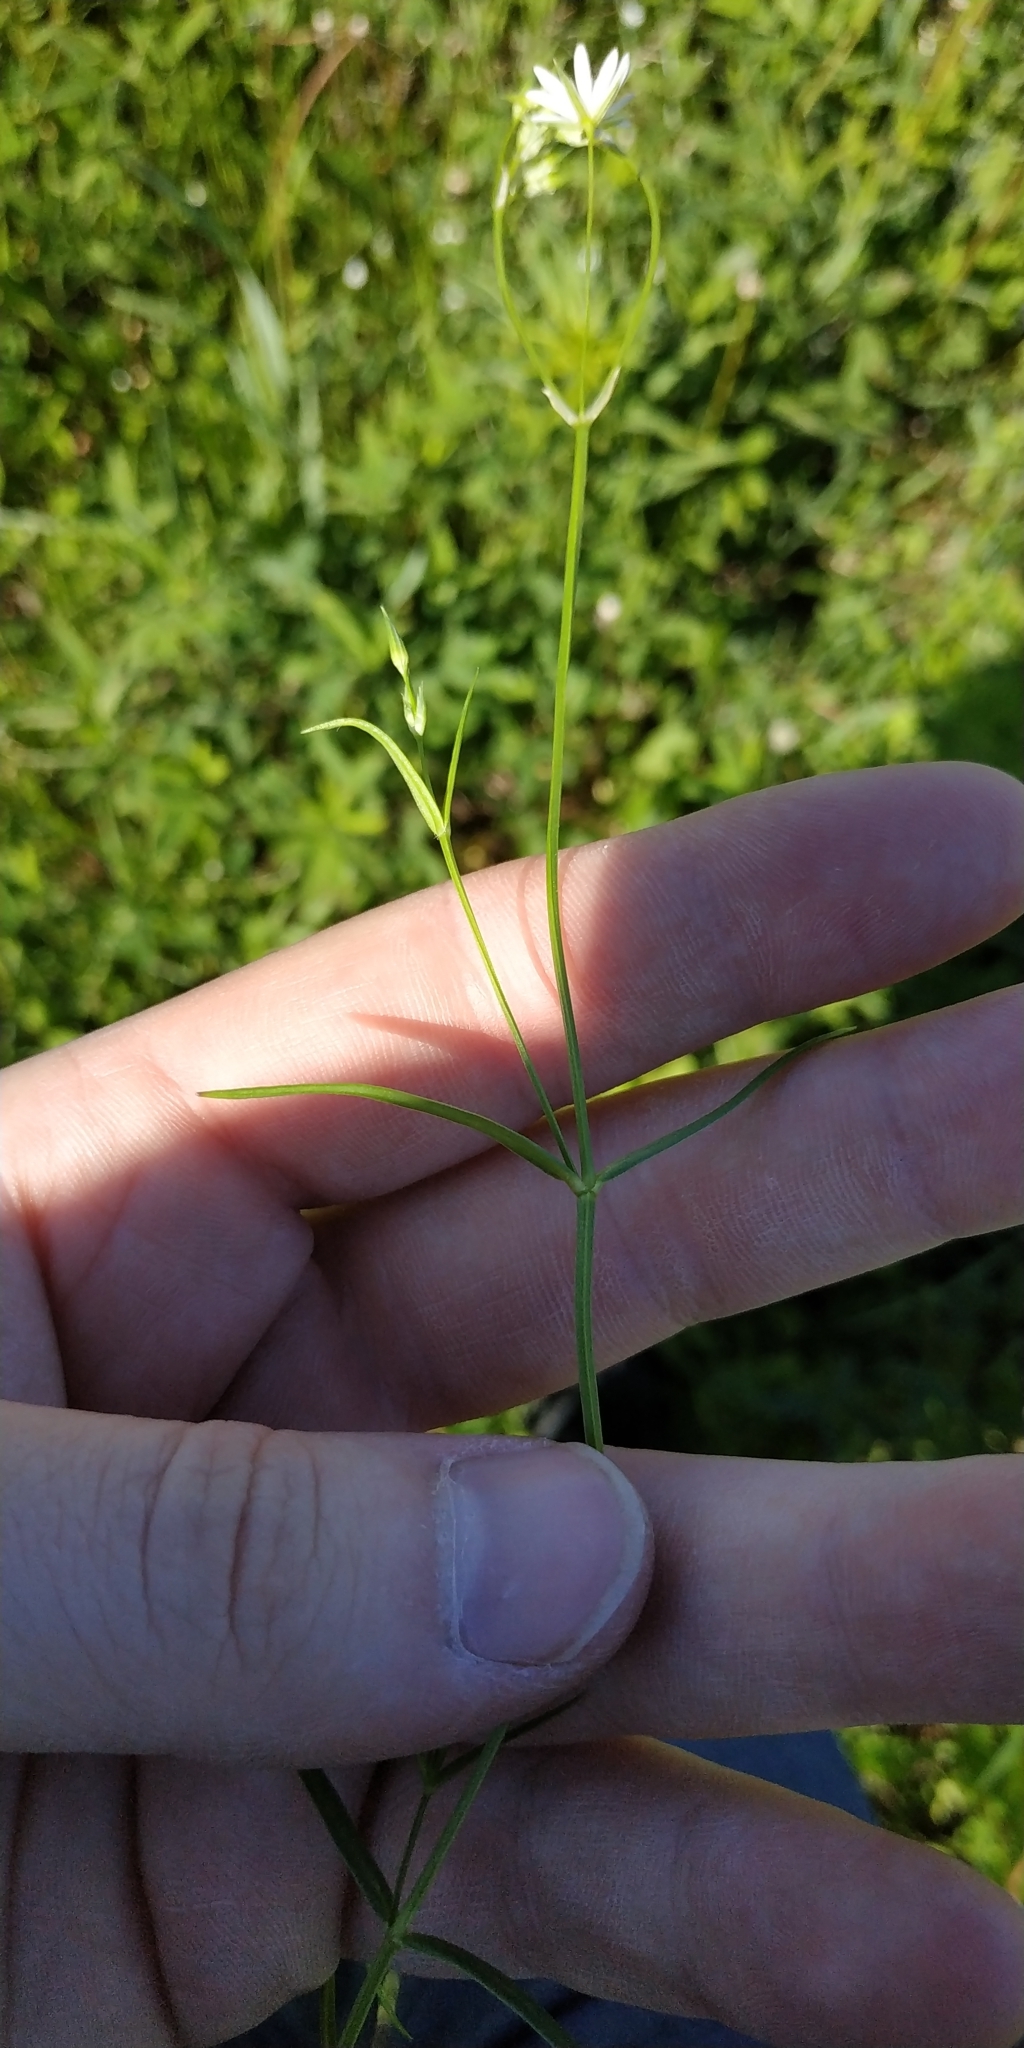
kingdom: Plantae
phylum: Tracheophyta
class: Magnoliopsida
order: Caryophyllales
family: Caryophyllaceae
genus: Stellaria
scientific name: Stellaria graminea
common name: Grass-like starwort
